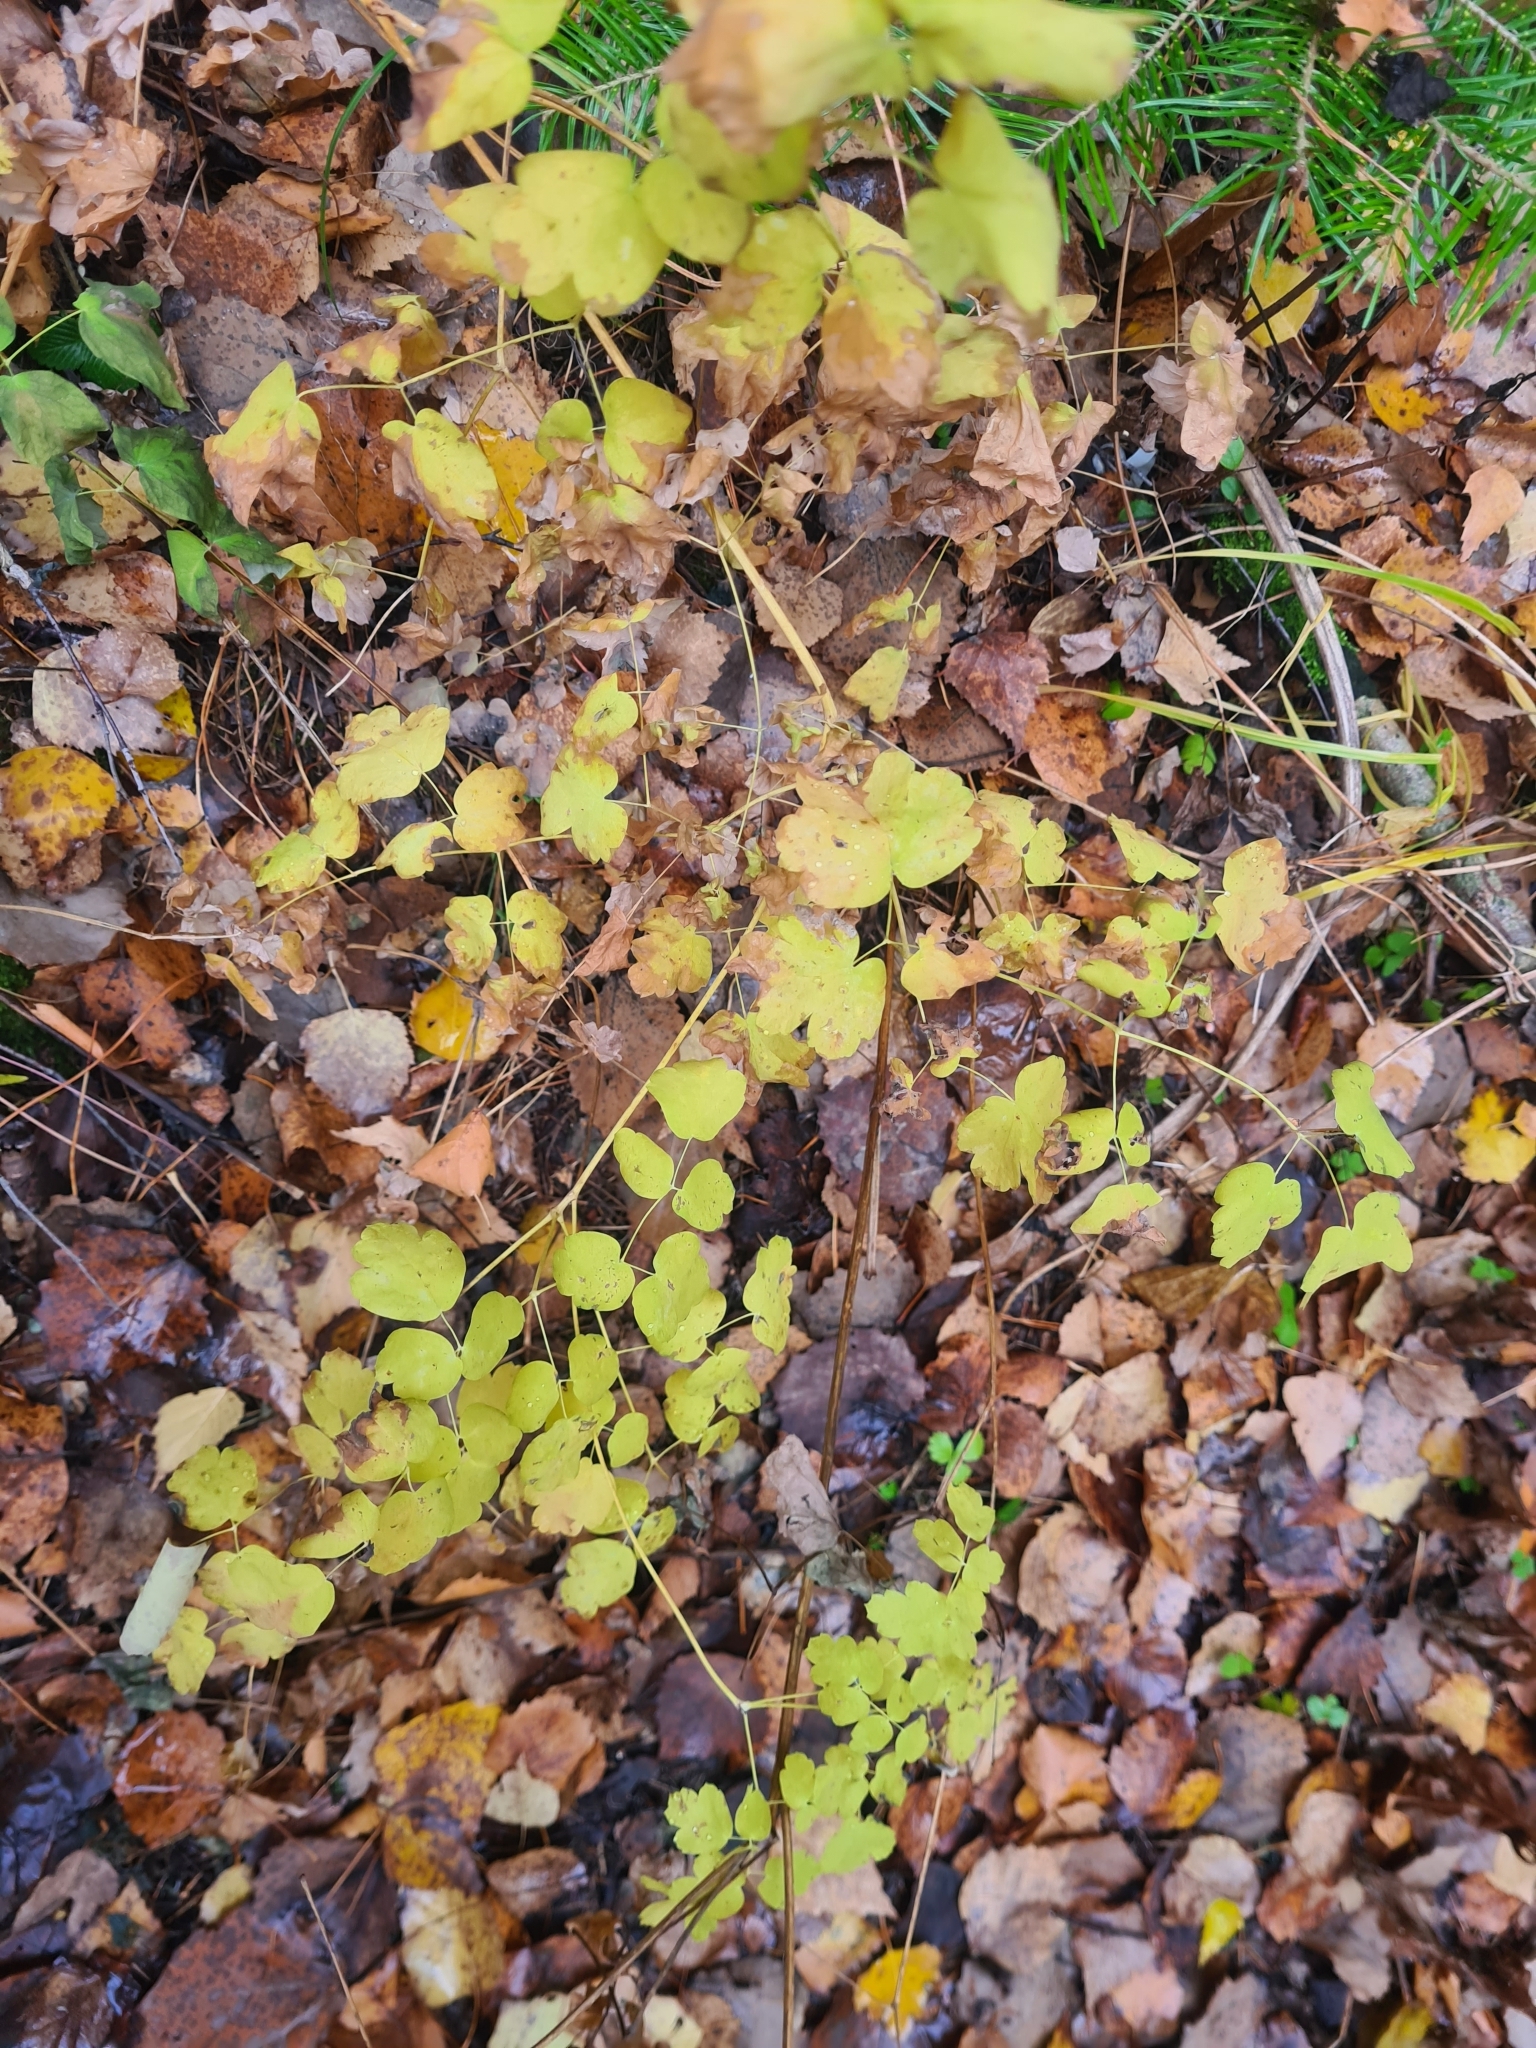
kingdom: Plantae
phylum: Tracheophyta
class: Magnoliopsida
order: Ranunculales
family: Ranunculaceae
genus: Thalictrum
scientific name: Thalictrum minus
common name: Lesser meadow-rue
